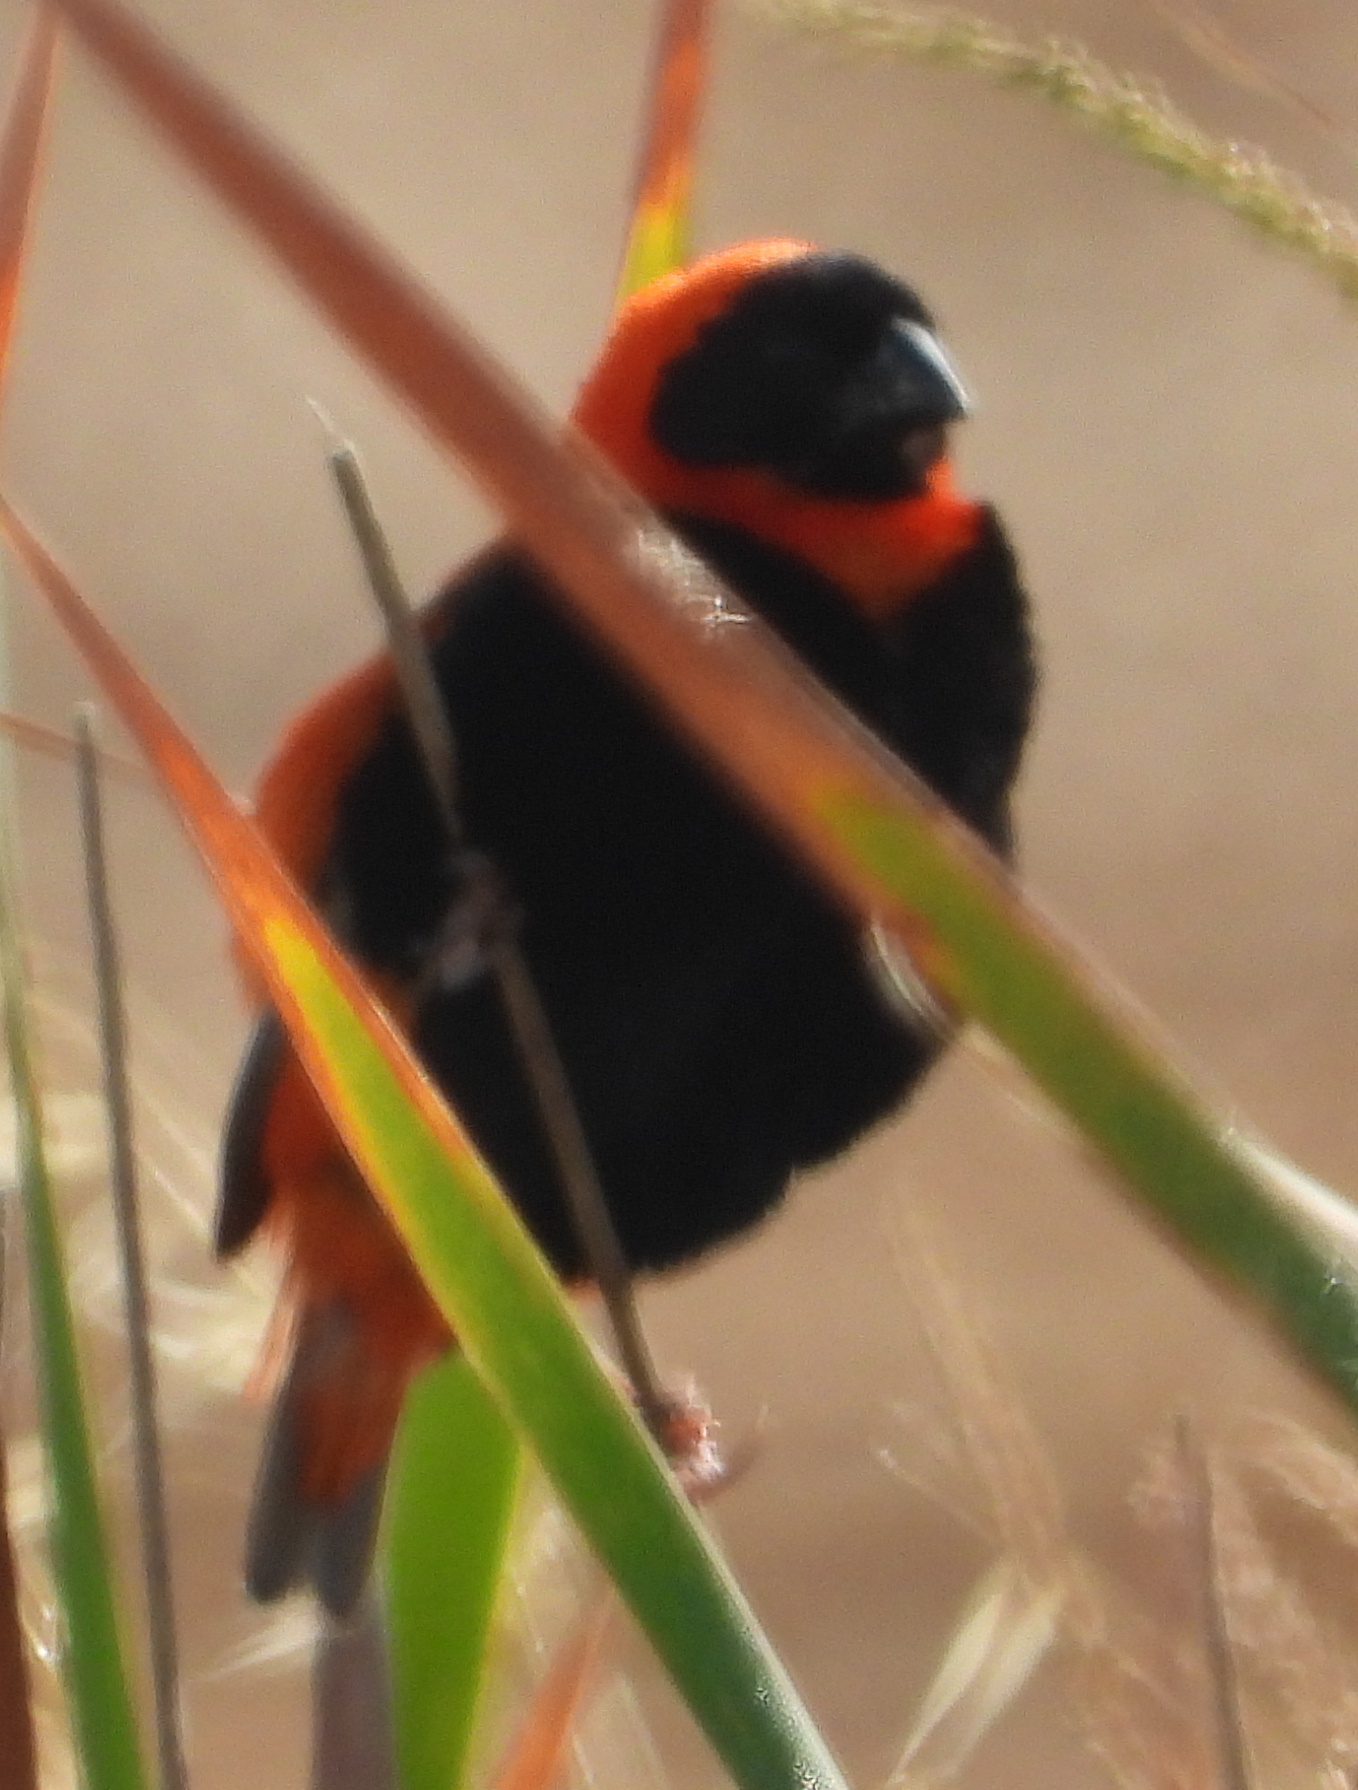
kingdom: Animalia
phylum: Chordata
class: Aves
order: Passeriformes
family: Ploceidae
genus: Euplectes
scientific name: Euplectes orix
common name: Southern red bishop
